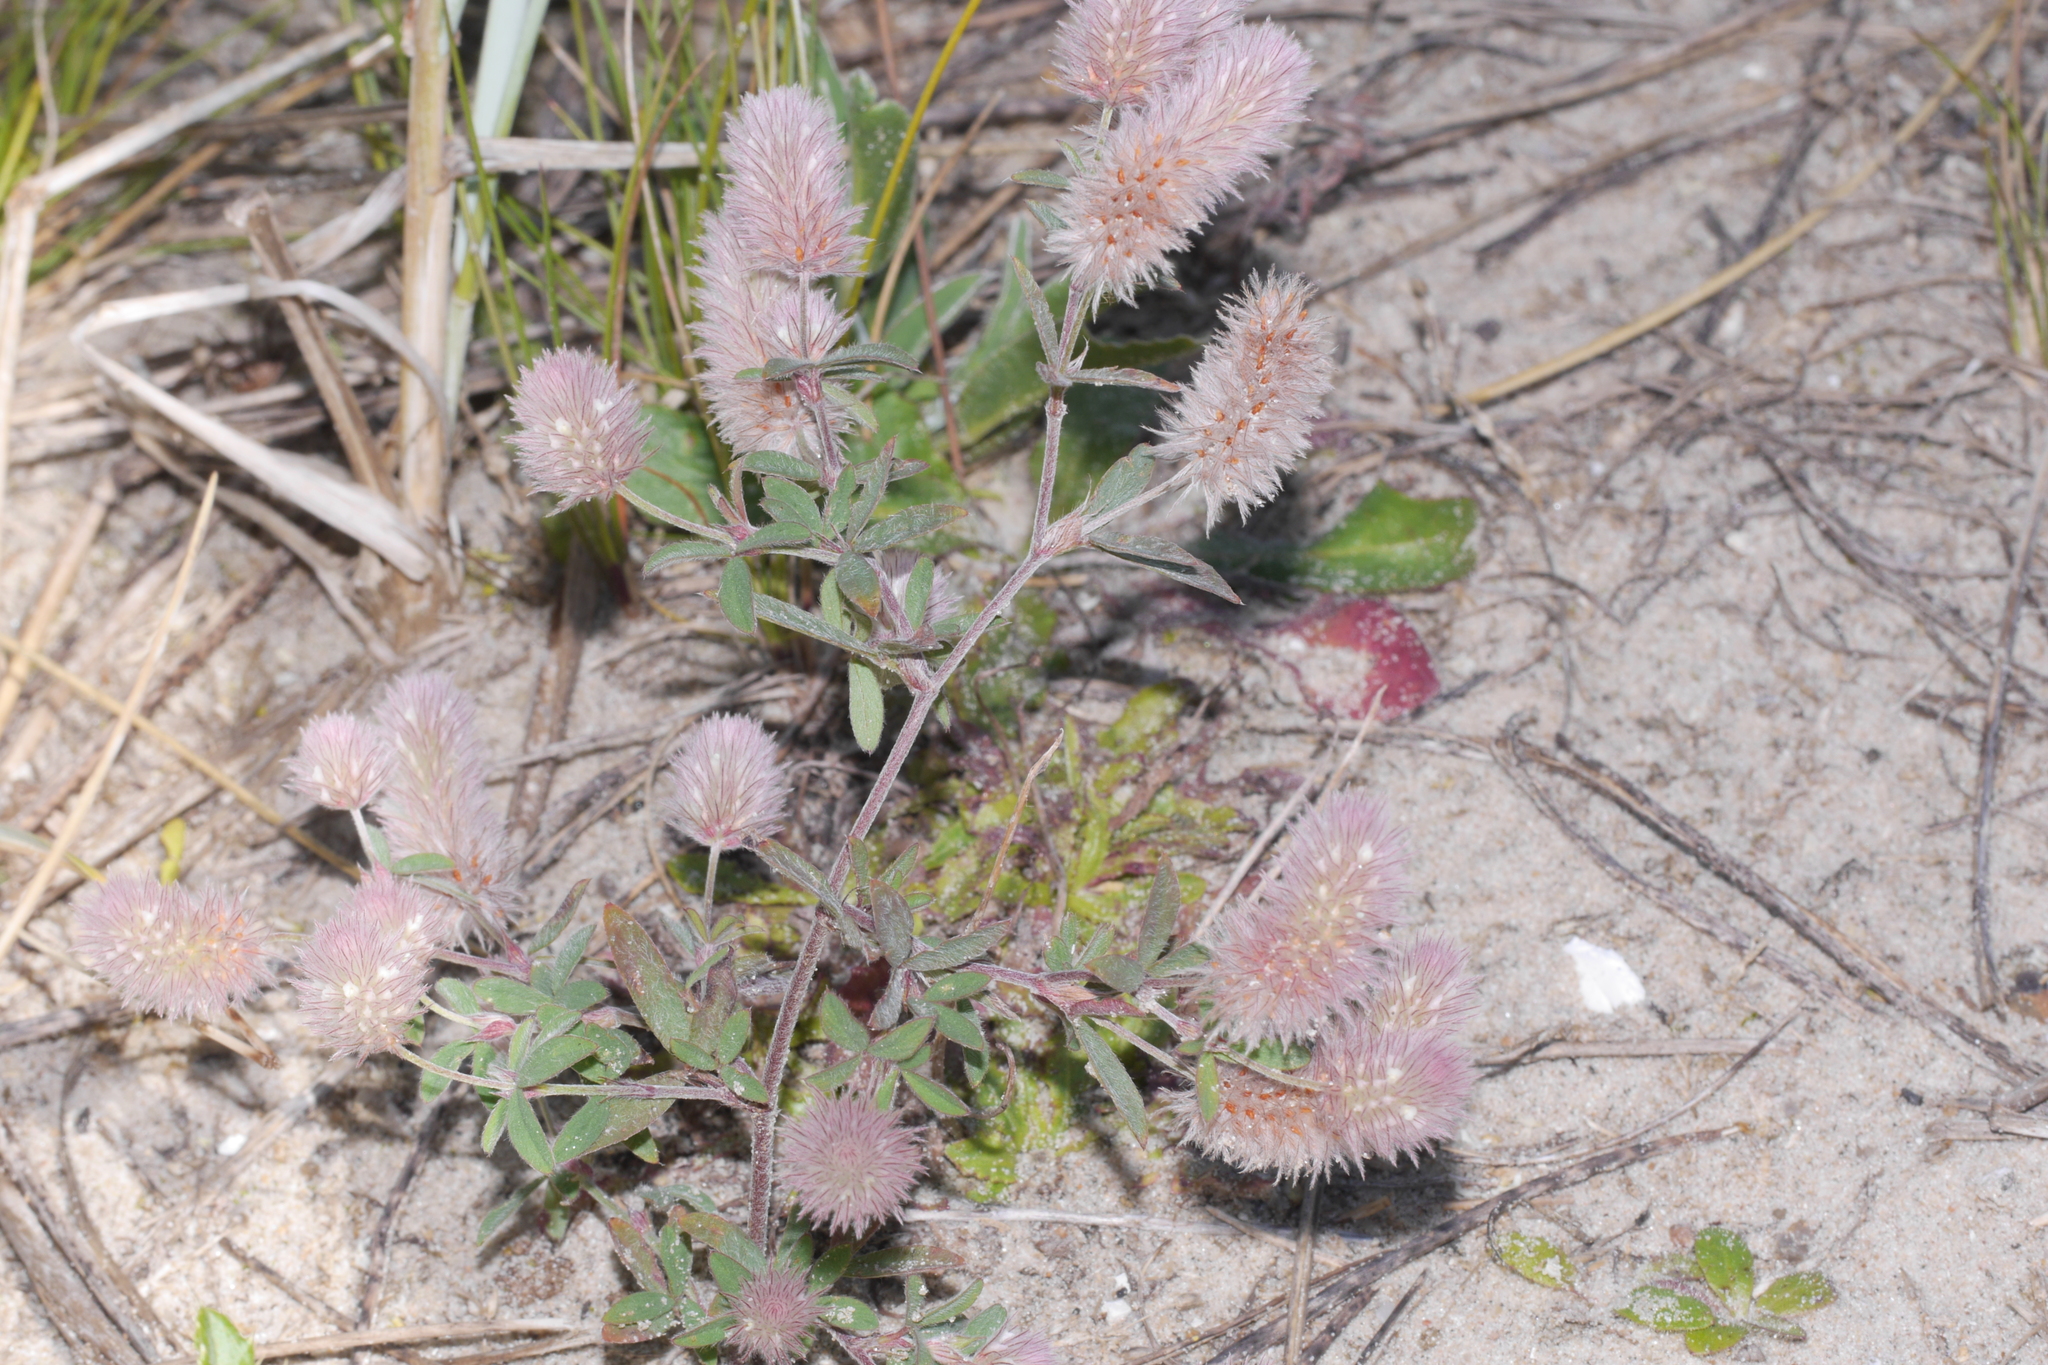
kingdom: Plantae
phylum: Tracheophyta
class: Magnoliopsida
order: Fabales
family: Fabaceae
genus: Trifolium
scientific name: Trifolium arvense
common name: Hare's-foot clover
